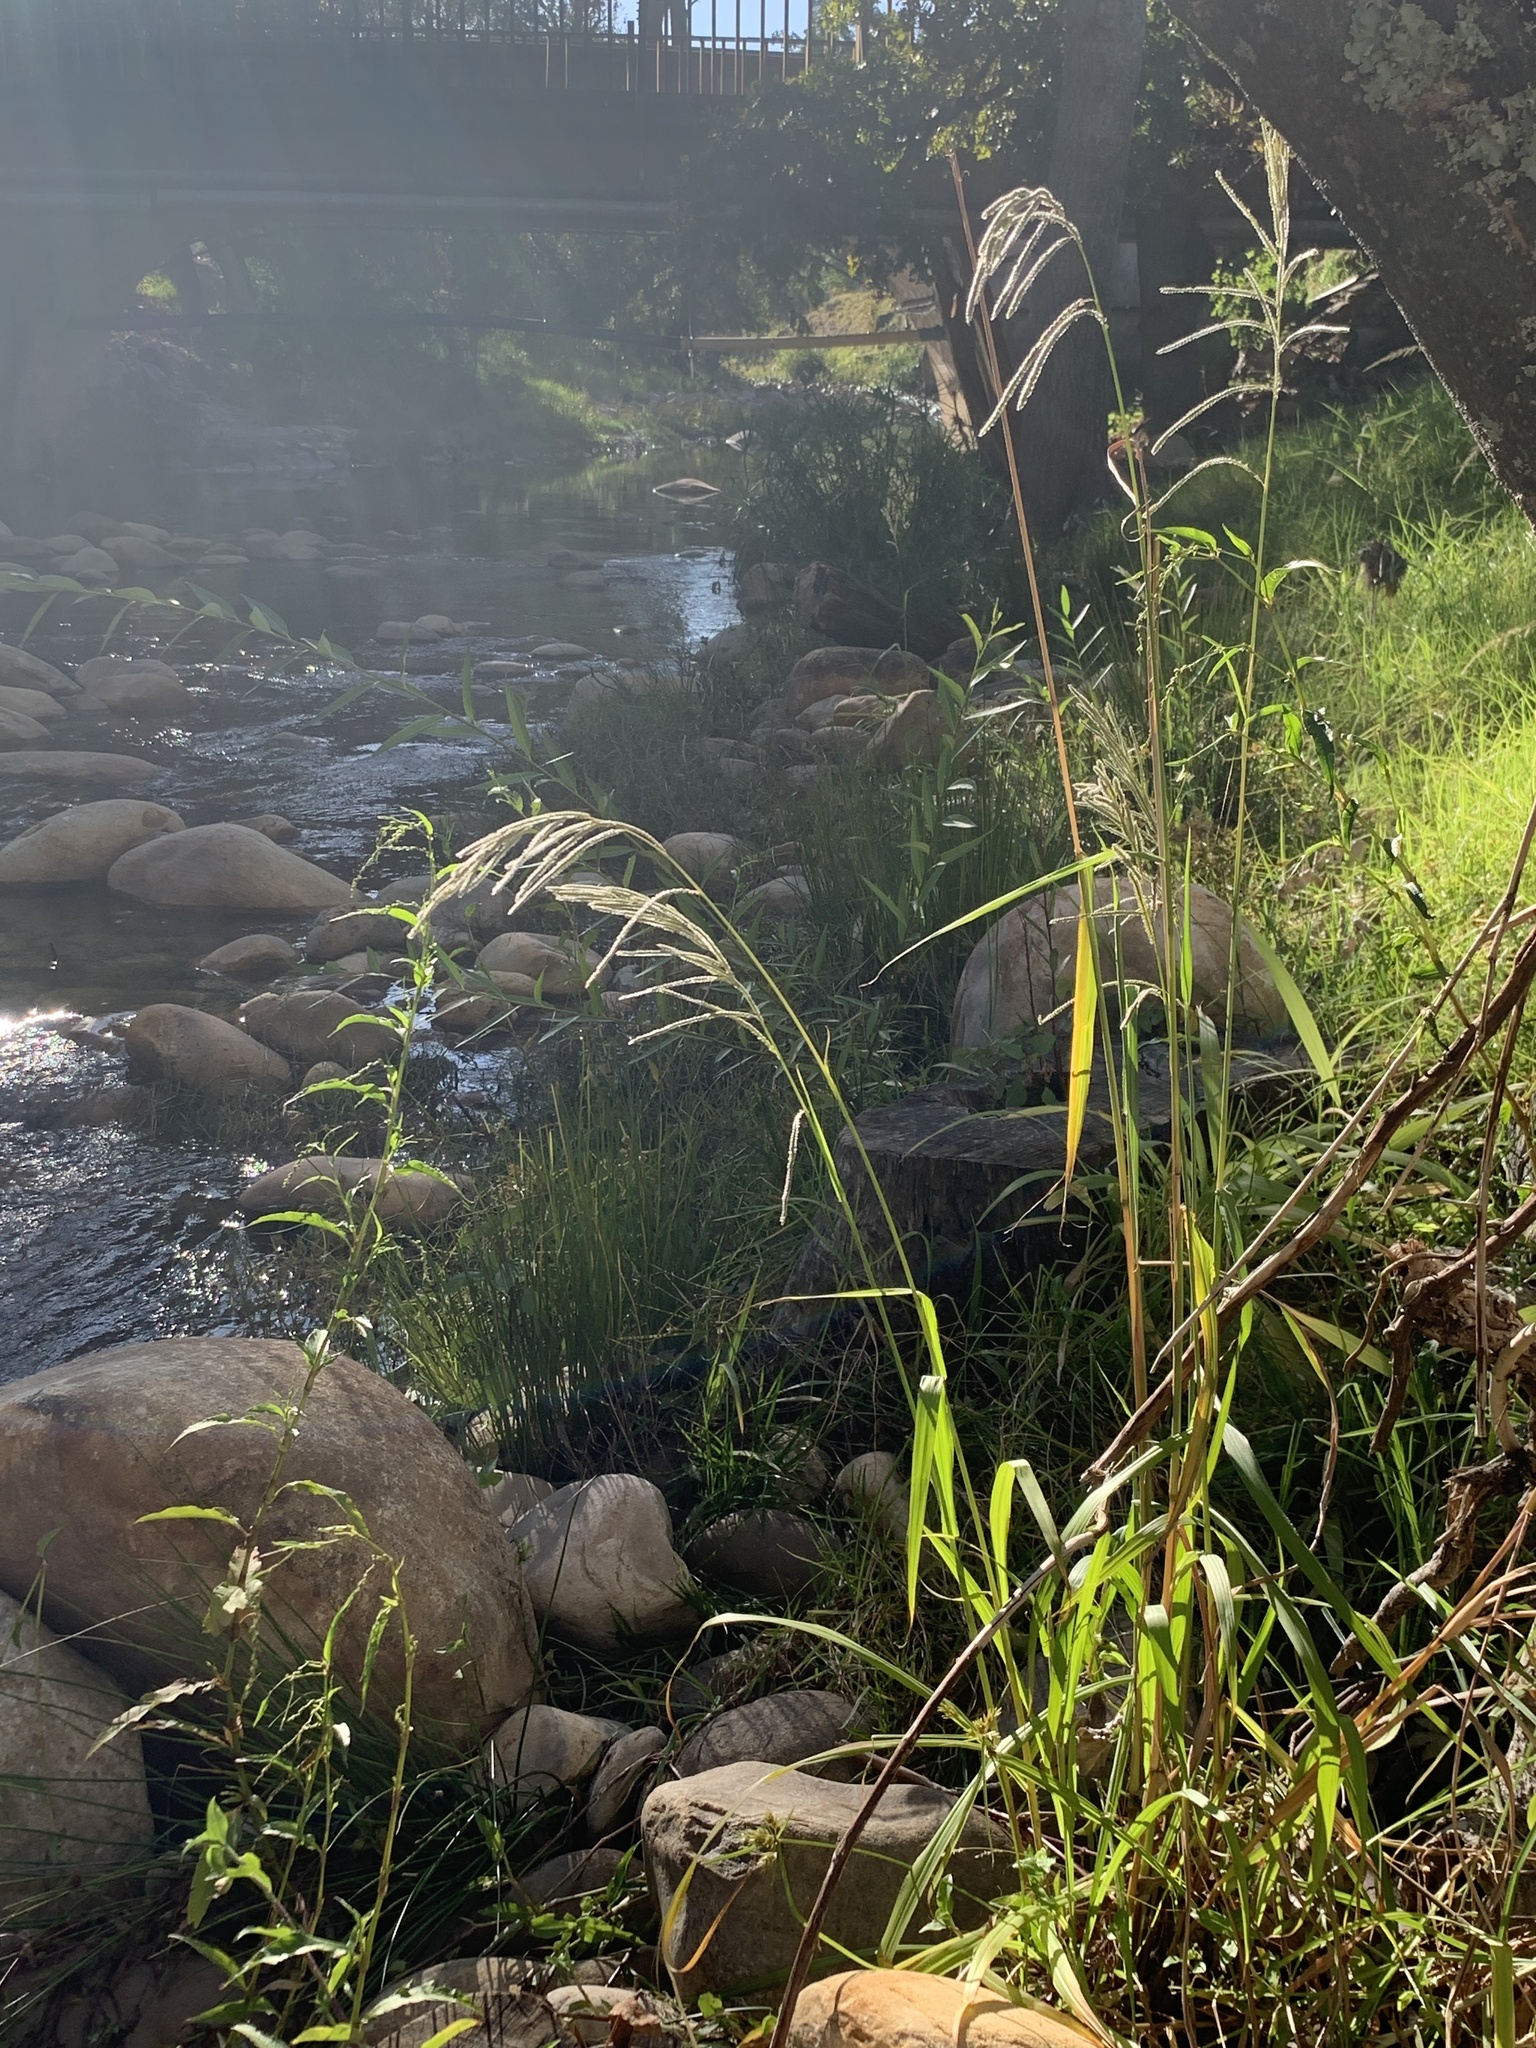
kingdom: Plantae
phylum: Tracheophyta
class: Liliopsida
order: Poales
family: Poaceae
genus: Paspalum
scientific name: Paspalum urvillei
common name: Vasey's grass
